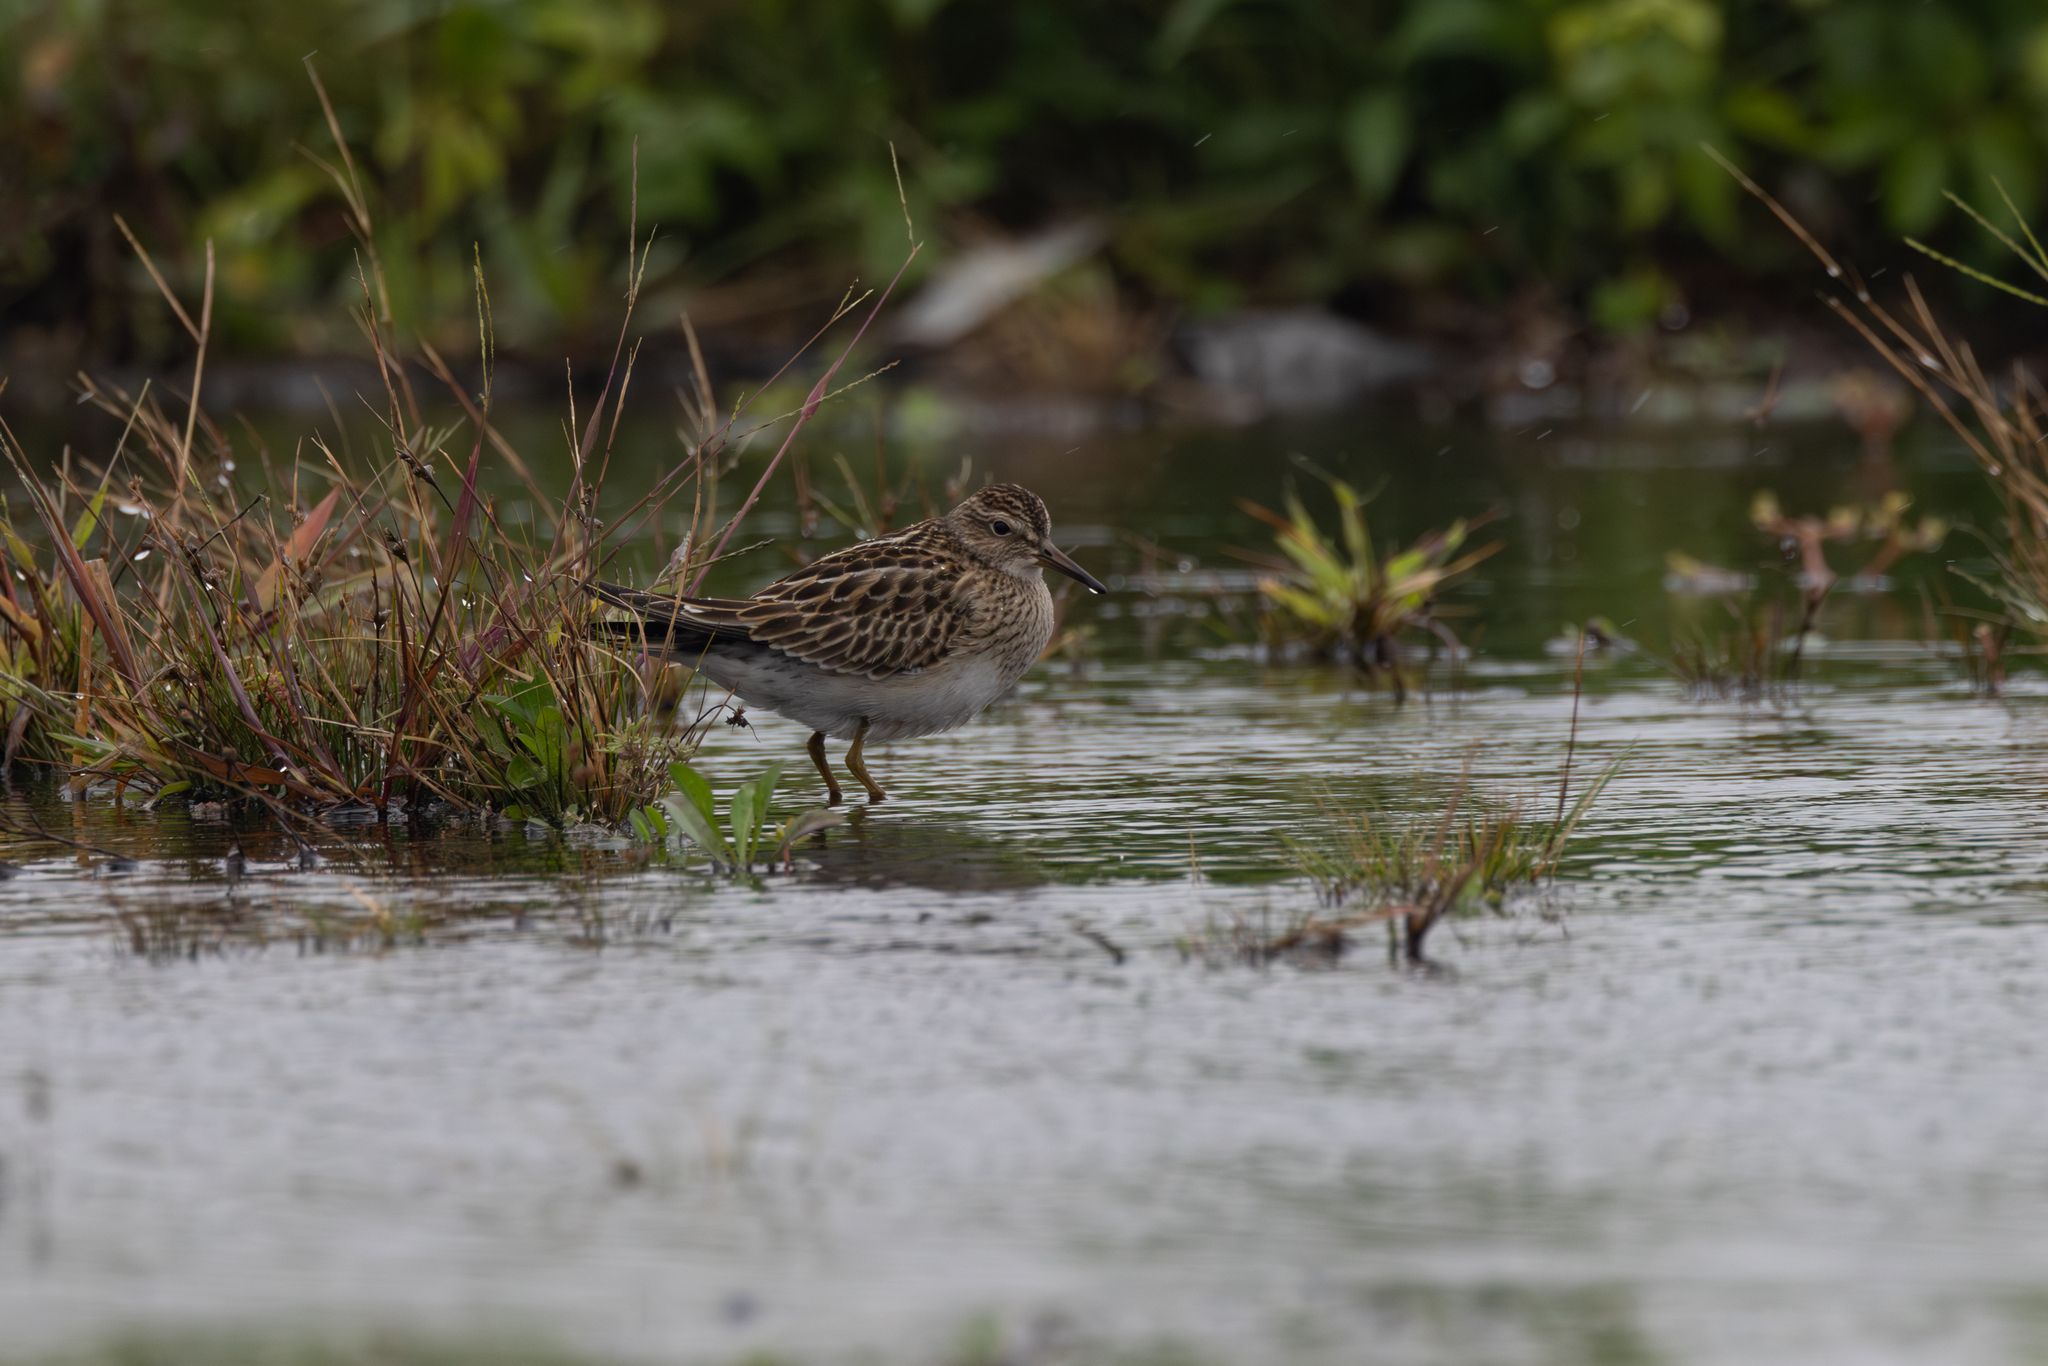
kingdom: Animalia
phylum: Chordata
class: Aves
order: Charadriiformes
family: Scolopacidae
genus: Calidris
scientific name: Calidris melanotos
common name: Pectoral sandpiper
